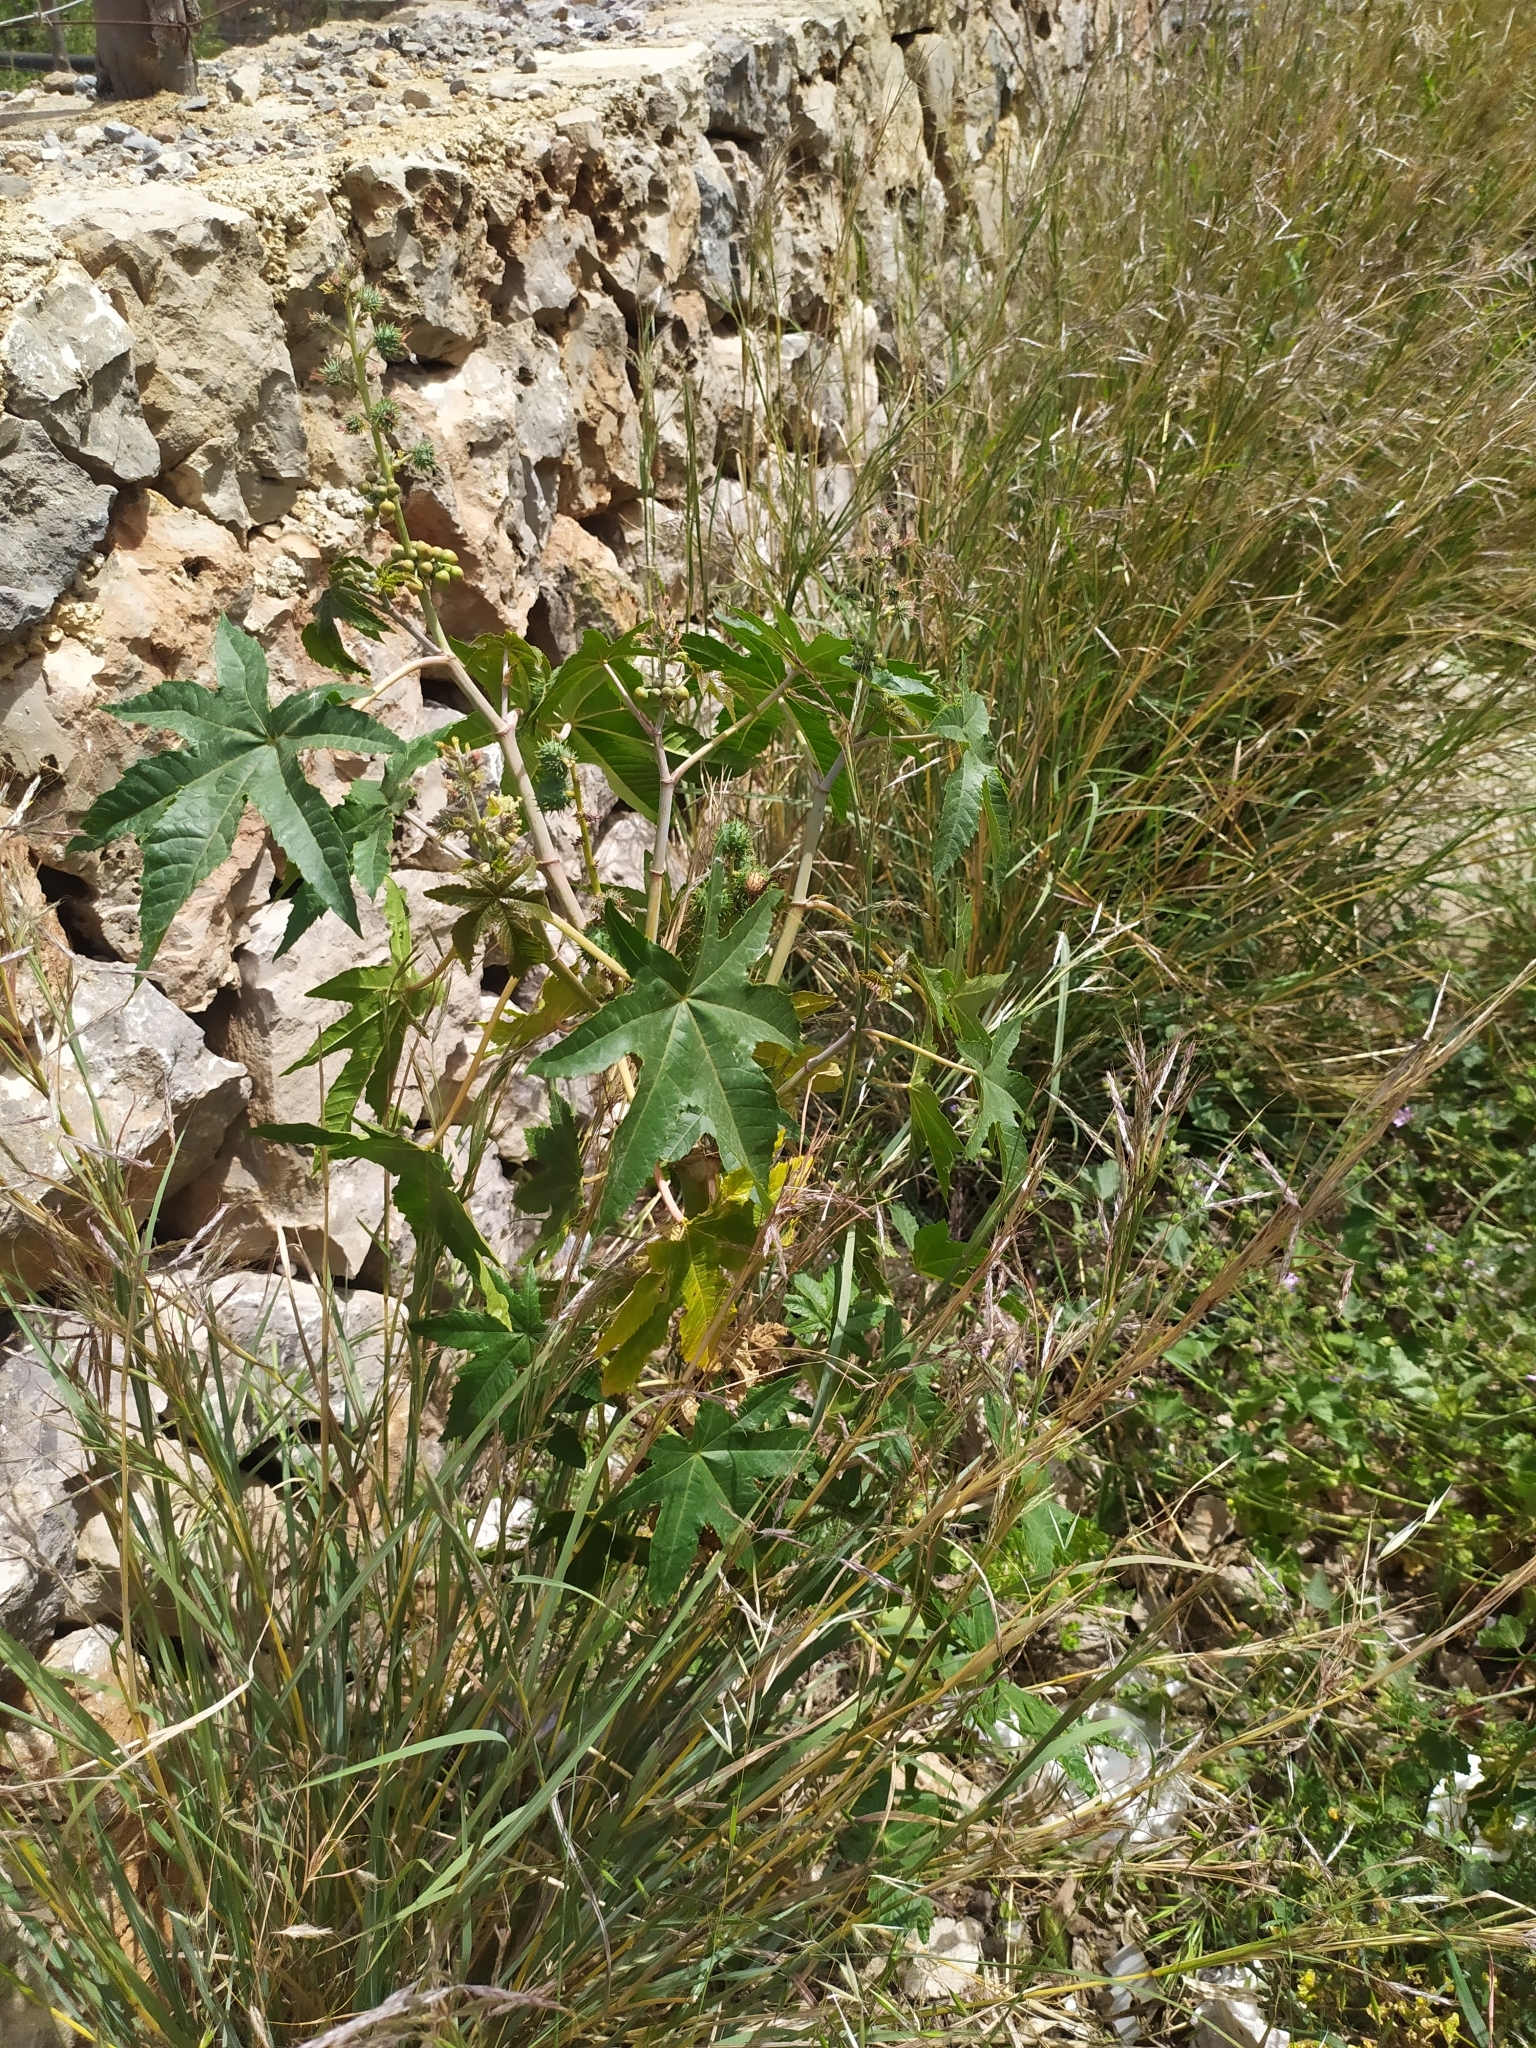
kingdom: Plantae
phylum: Tracheophyta
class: Magnoliopsida
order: Malpighiales
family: Euphorbiaceae
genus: Ricinus
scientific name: Ricinus communis
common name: Castor-oil-plant
